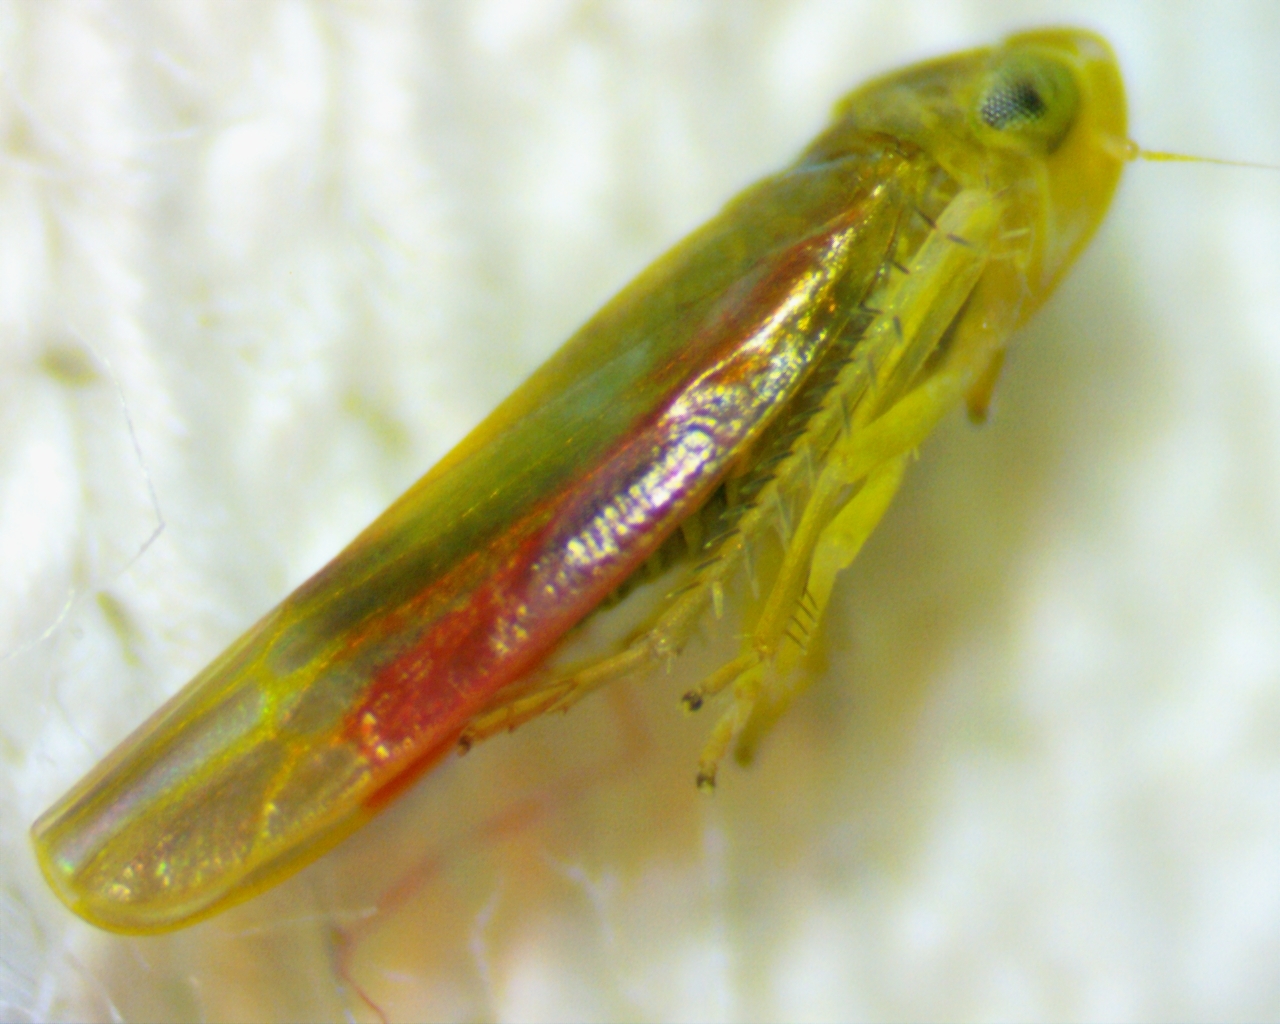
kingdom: Animalia
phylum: Arthropoda
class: Insecta
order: Hemiptera
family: Cicadellidae
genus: Erythridula
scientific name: Erythridula crevecoeuri
